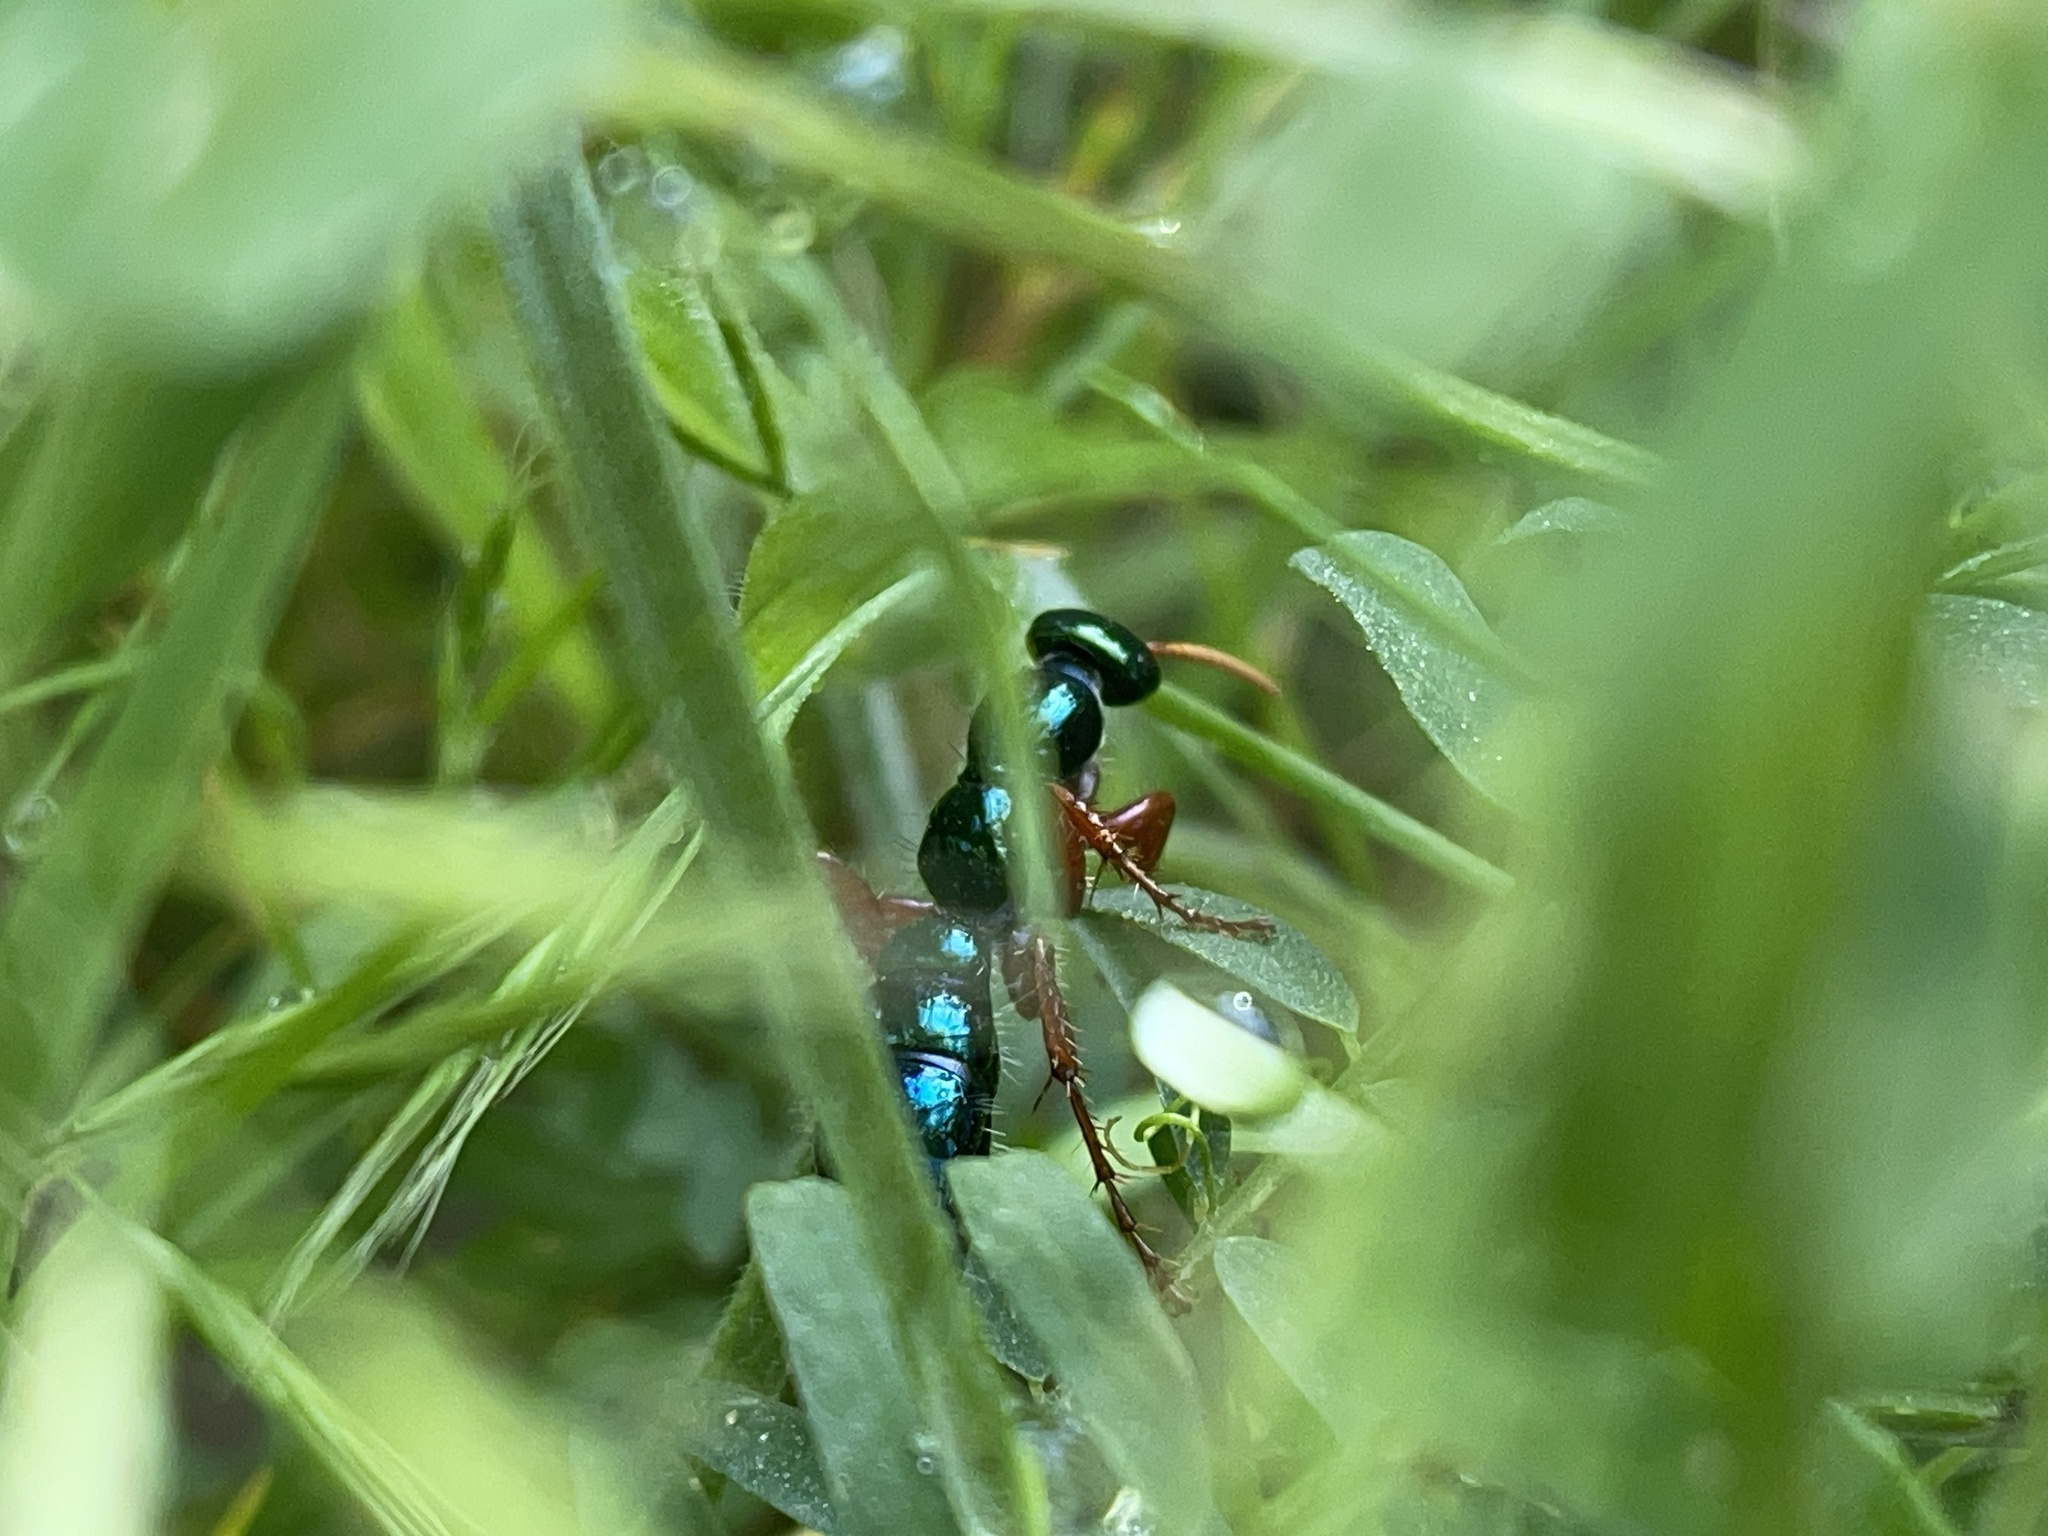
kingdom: Animalia
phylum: Arthropoda
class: Insecta
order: Hymenoptera
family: Tiphiidae
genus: Diamma
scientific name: Diamma
